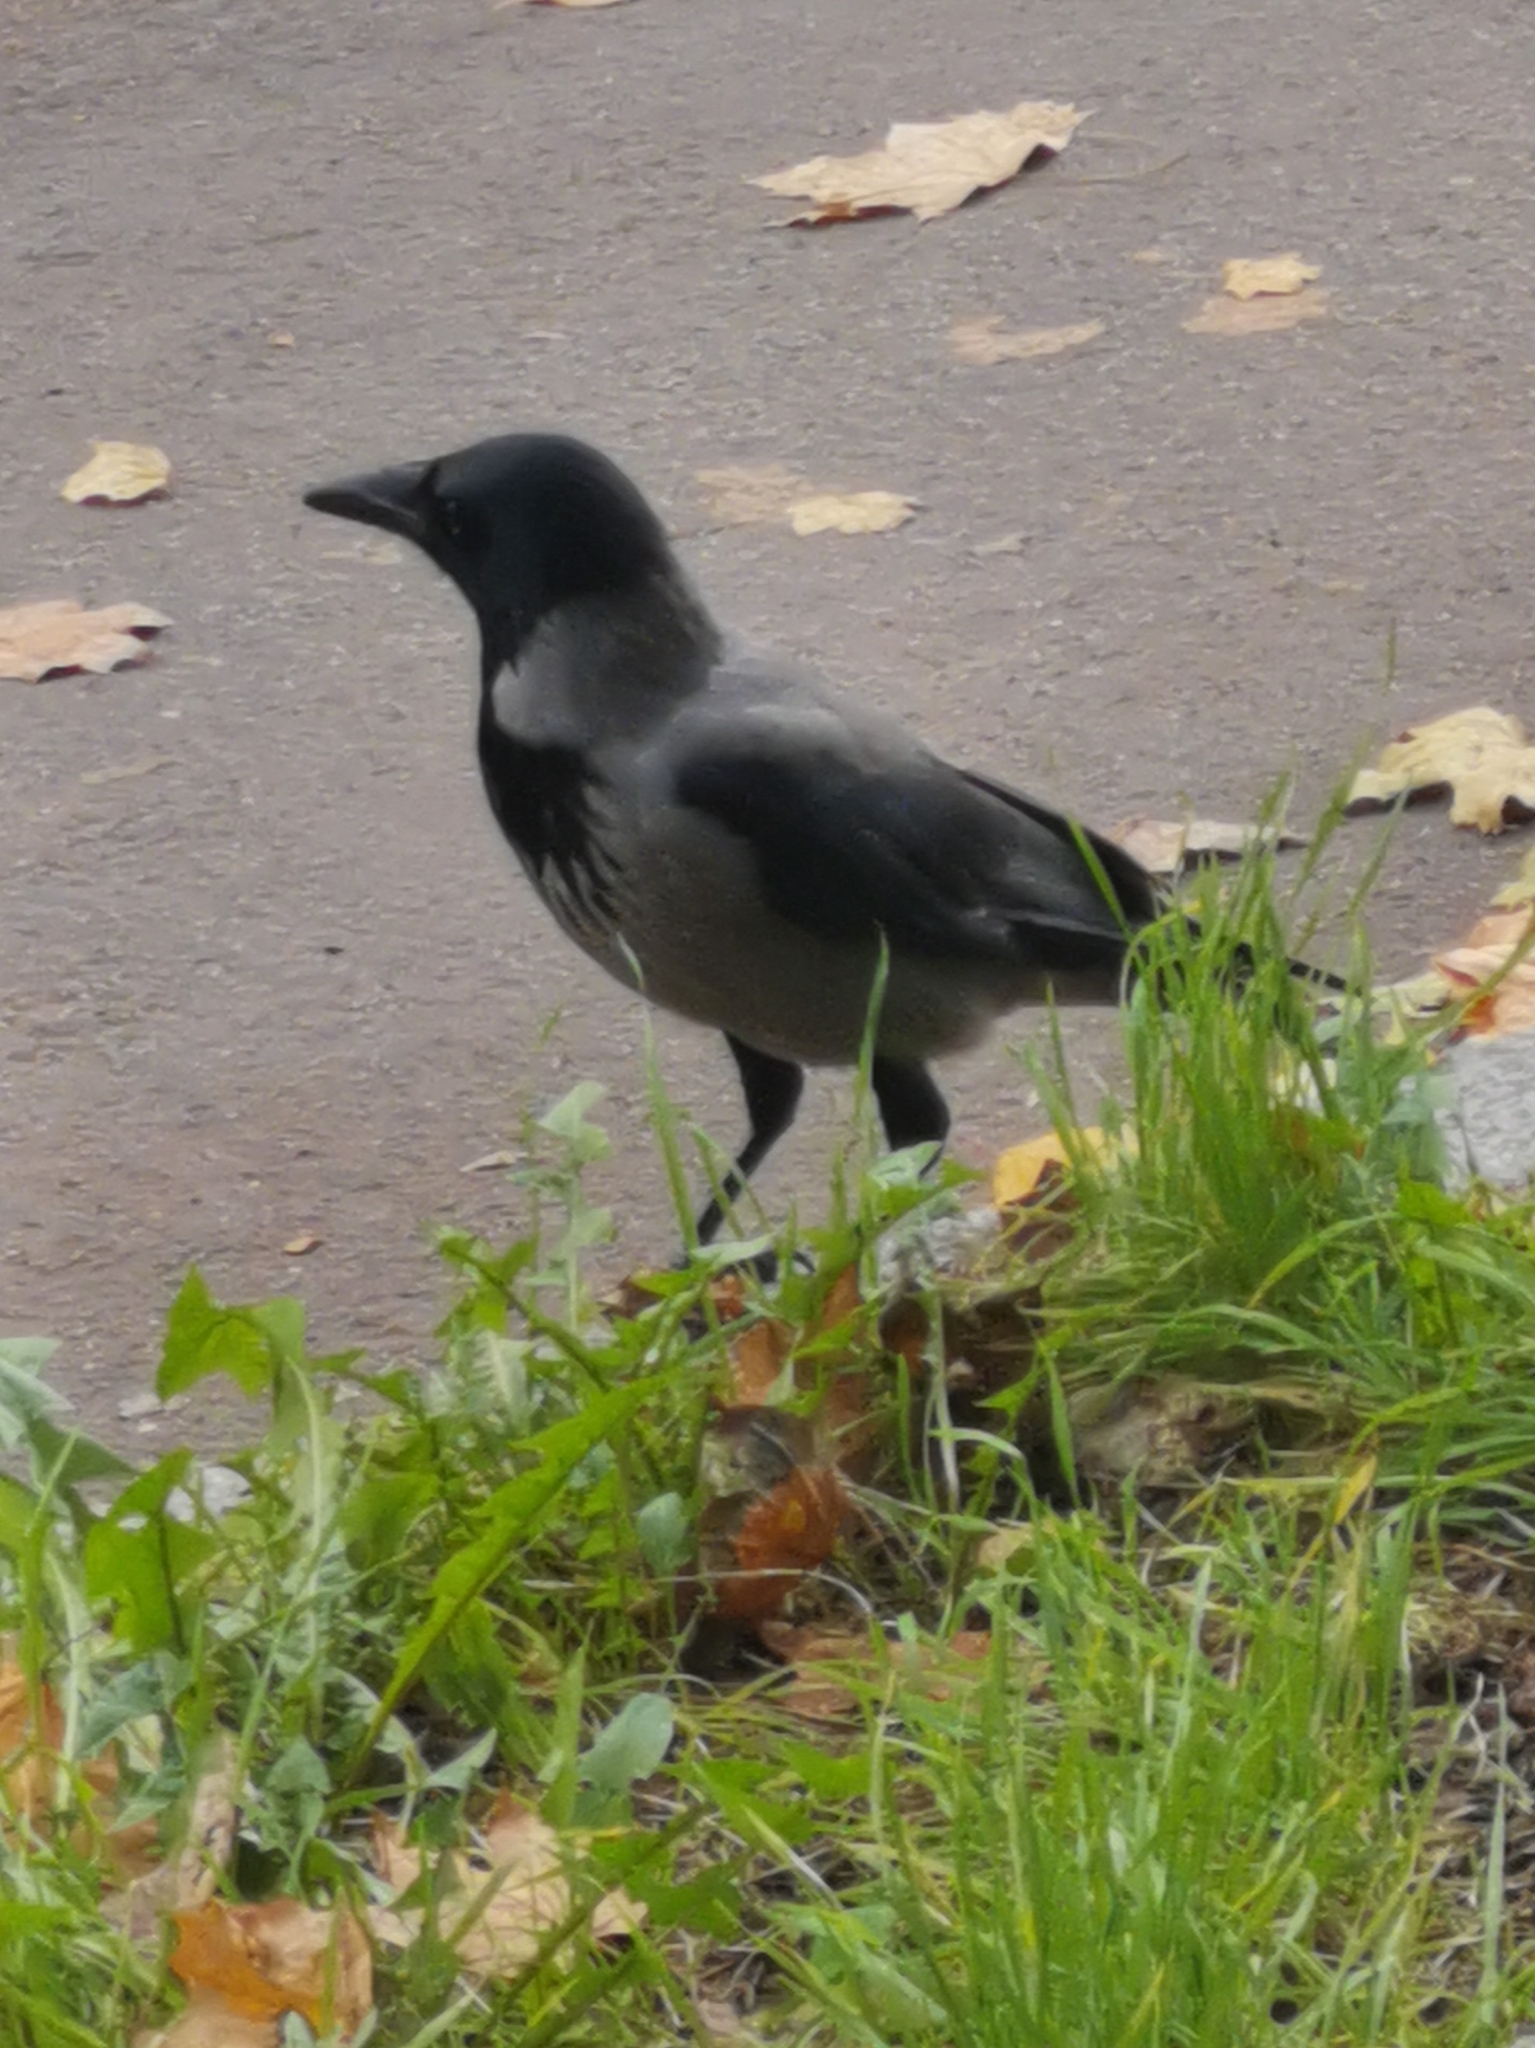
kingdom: Animalia
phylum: Chordata
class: Aves
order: Passeriformes
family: Corvidae
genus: Corvus
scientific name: Corvus cornix
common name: Hooded crow
